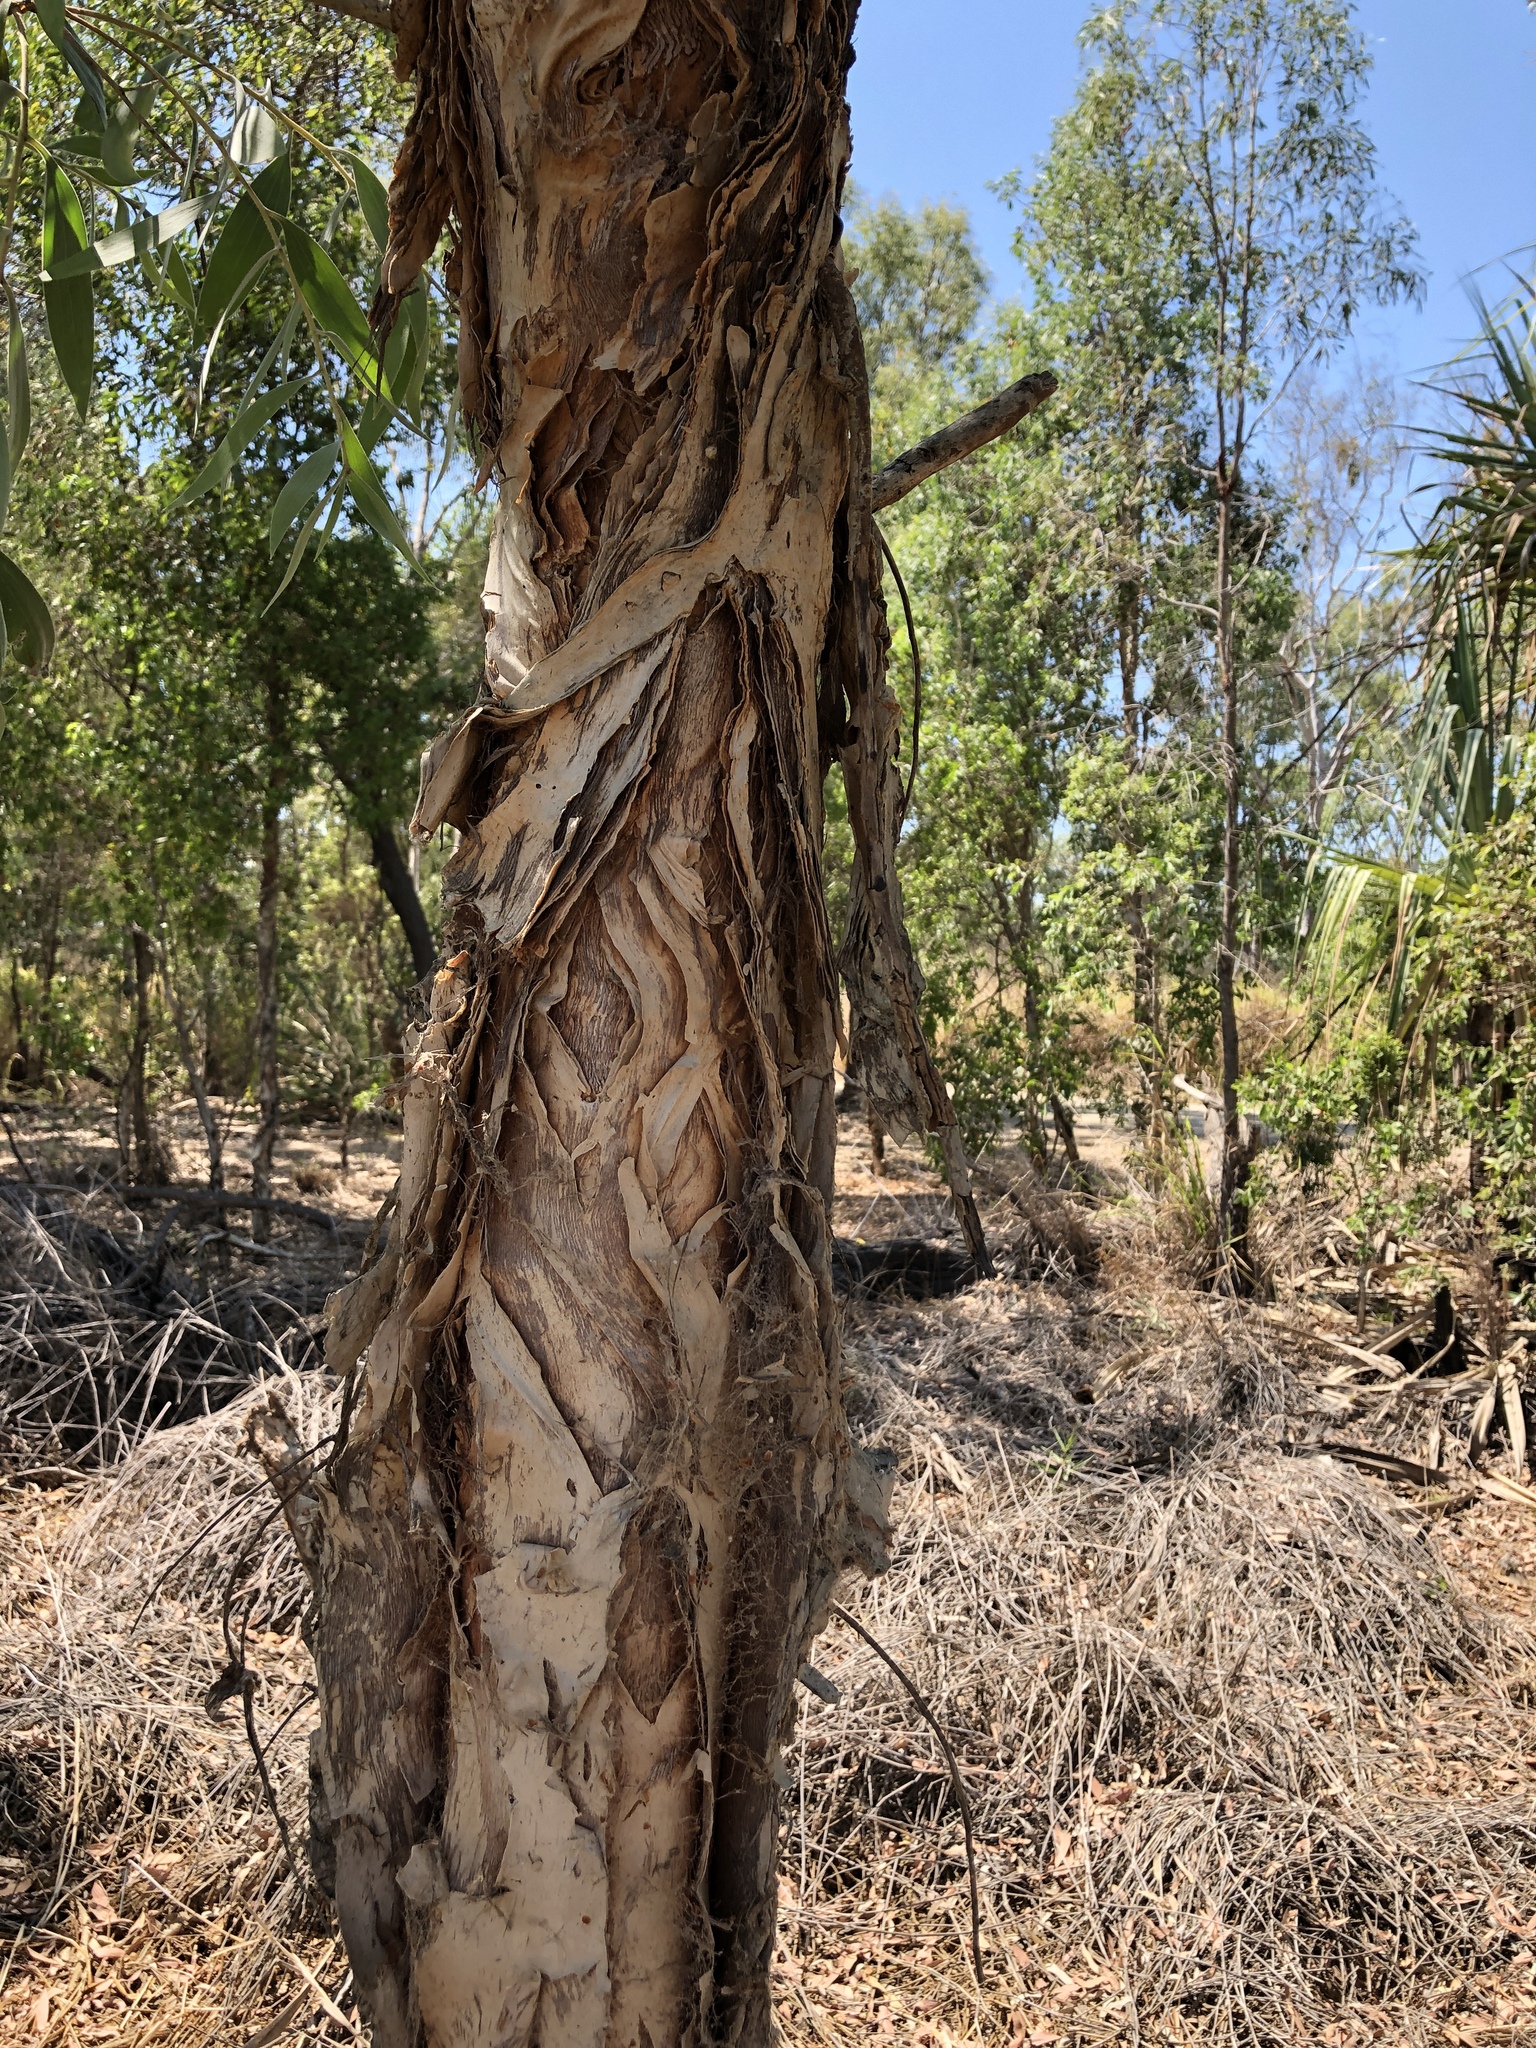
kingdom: Plantae
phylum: Tracheophyta
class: Magnoliopsida
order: Myrtales
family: Myrtaceae
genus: Melaleuca
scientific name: Melaleuca quinquenervia
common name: Punktree
